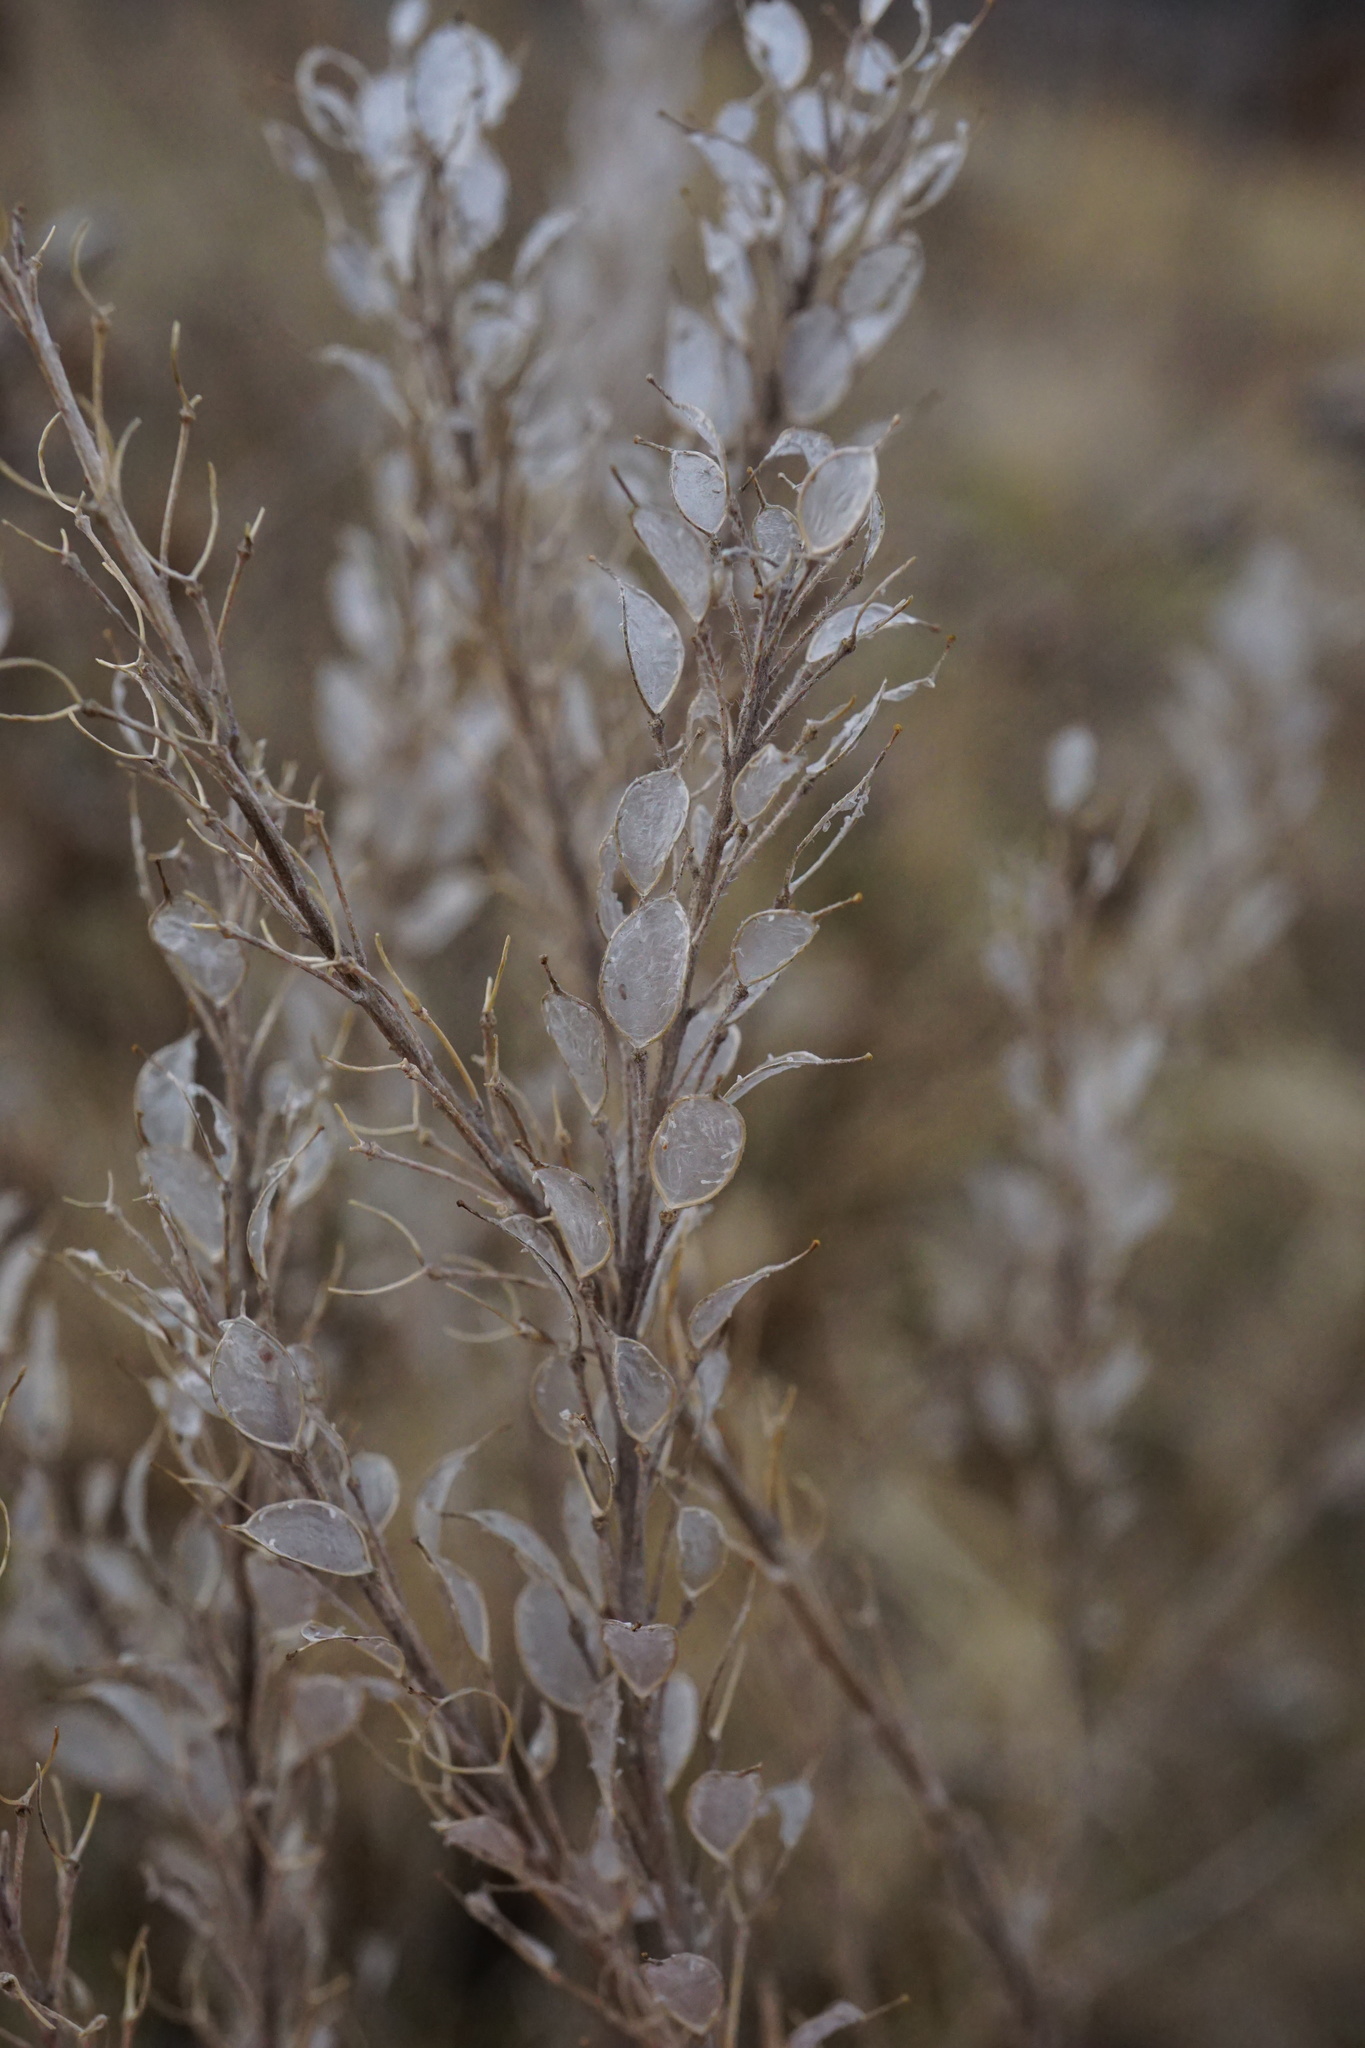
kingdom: Plantae
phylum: Tracheophyta
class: Magnoliopsida
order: Brassicales
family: Brassicaceae
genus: Berteroa
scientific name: Berteroa incana
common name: Hoary alison
